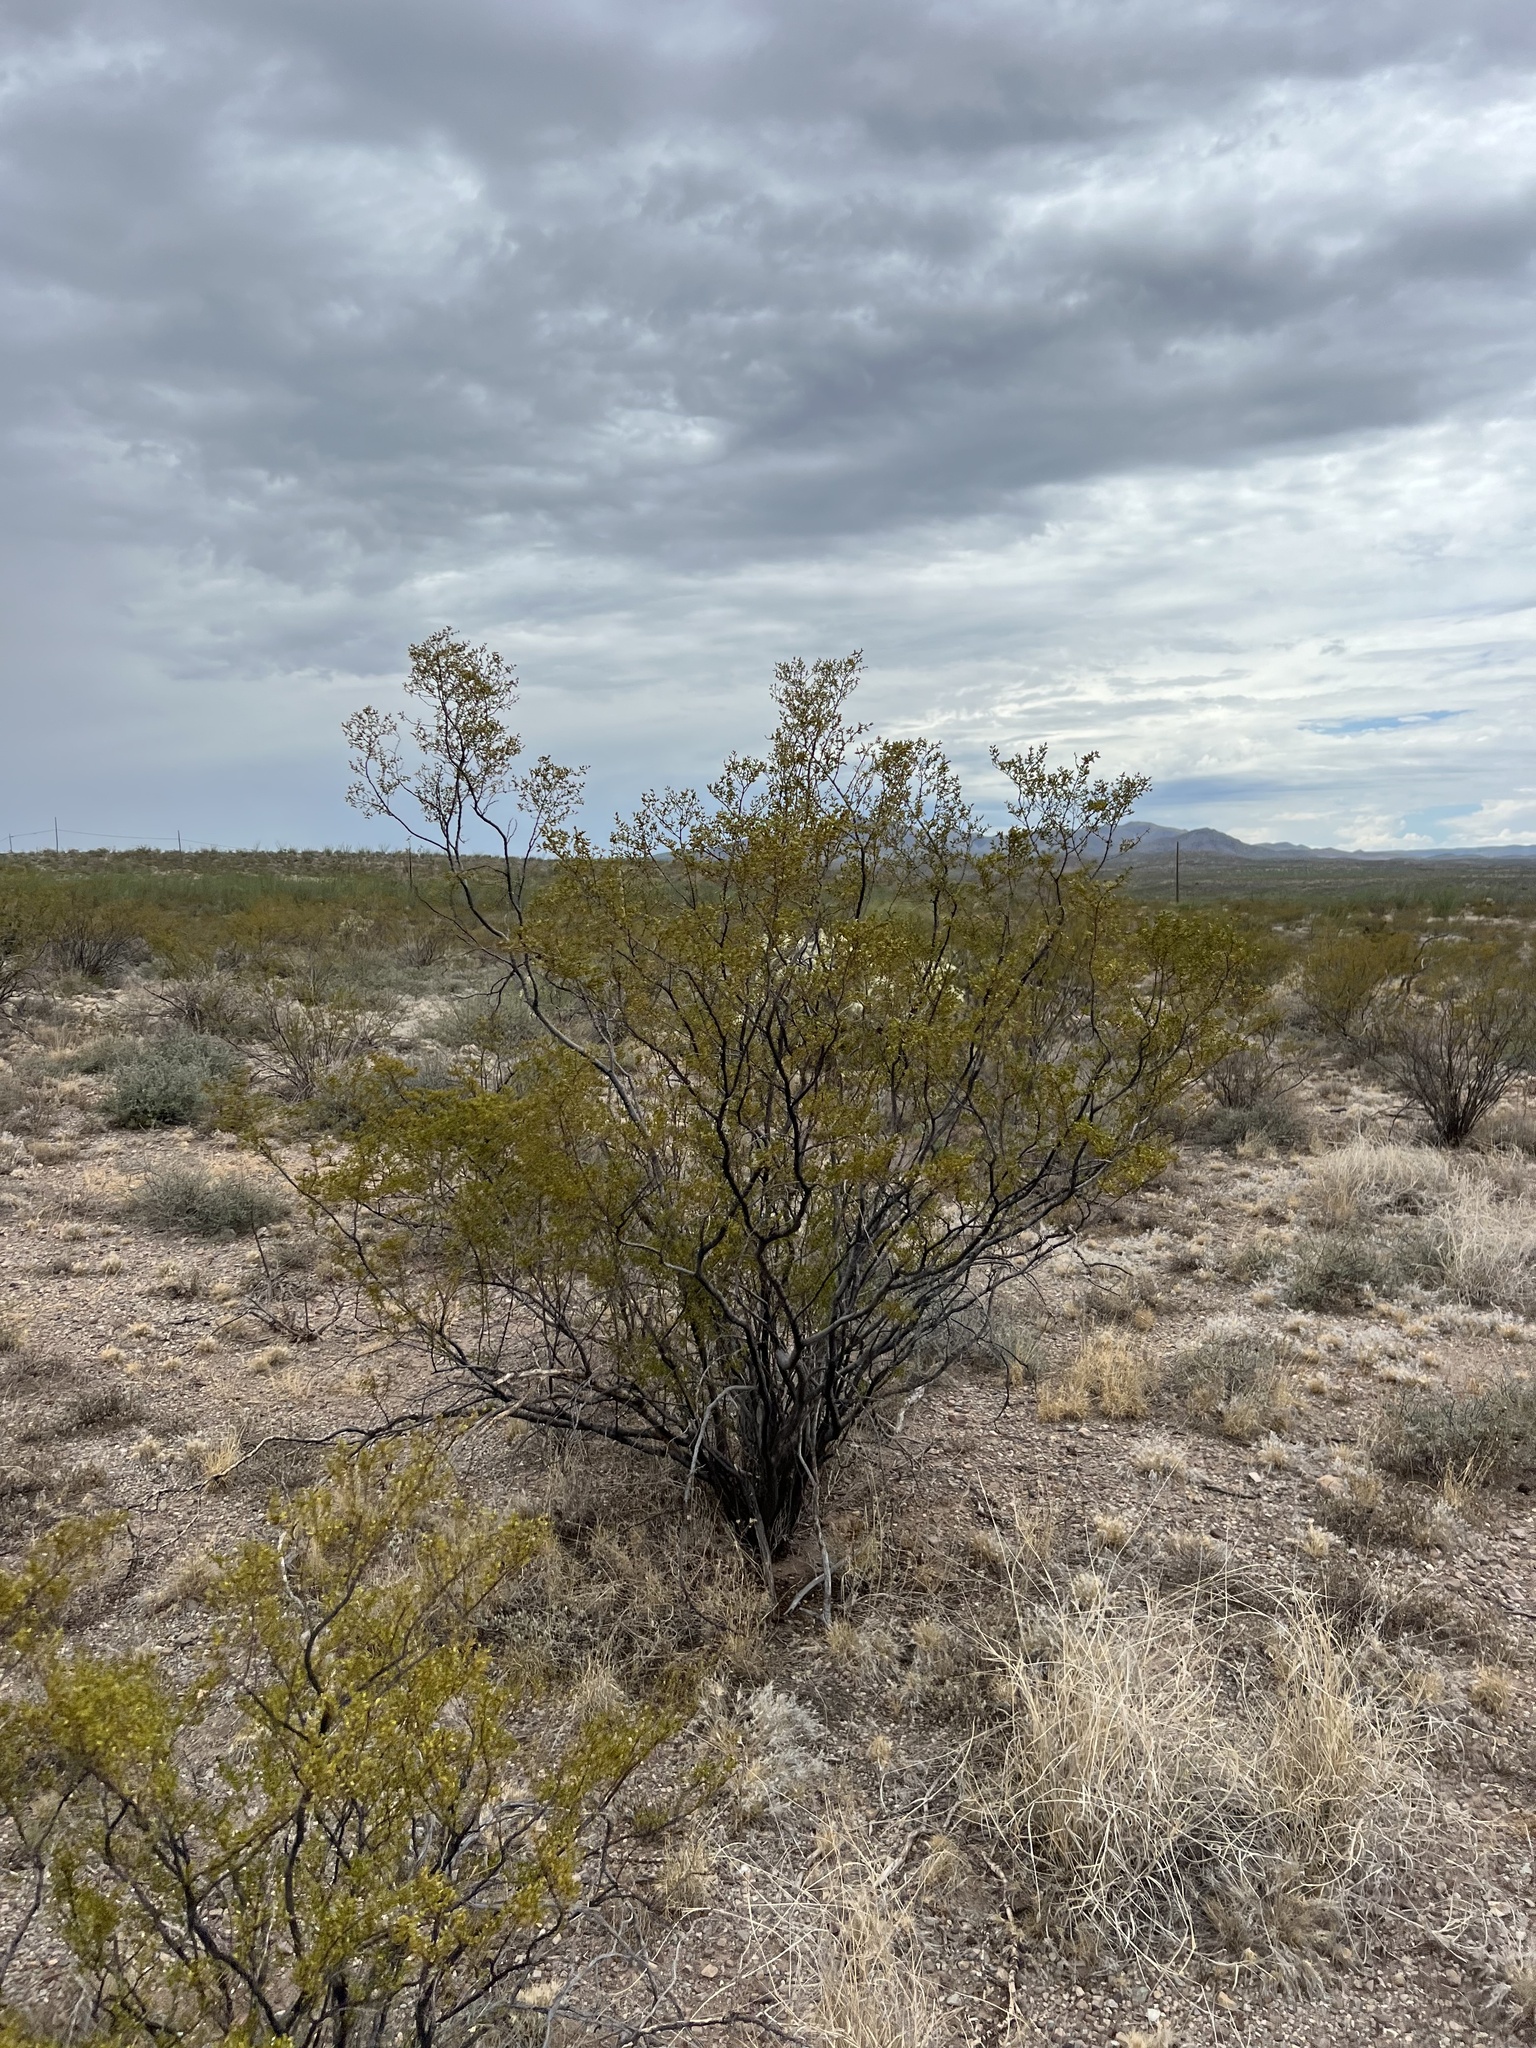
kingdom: Plantae
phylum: Tracheophyta
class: Magnoliopsida
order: Zygophyllales
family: Zygophyllaceae
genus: Larrea
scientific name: Larrea tridentata
